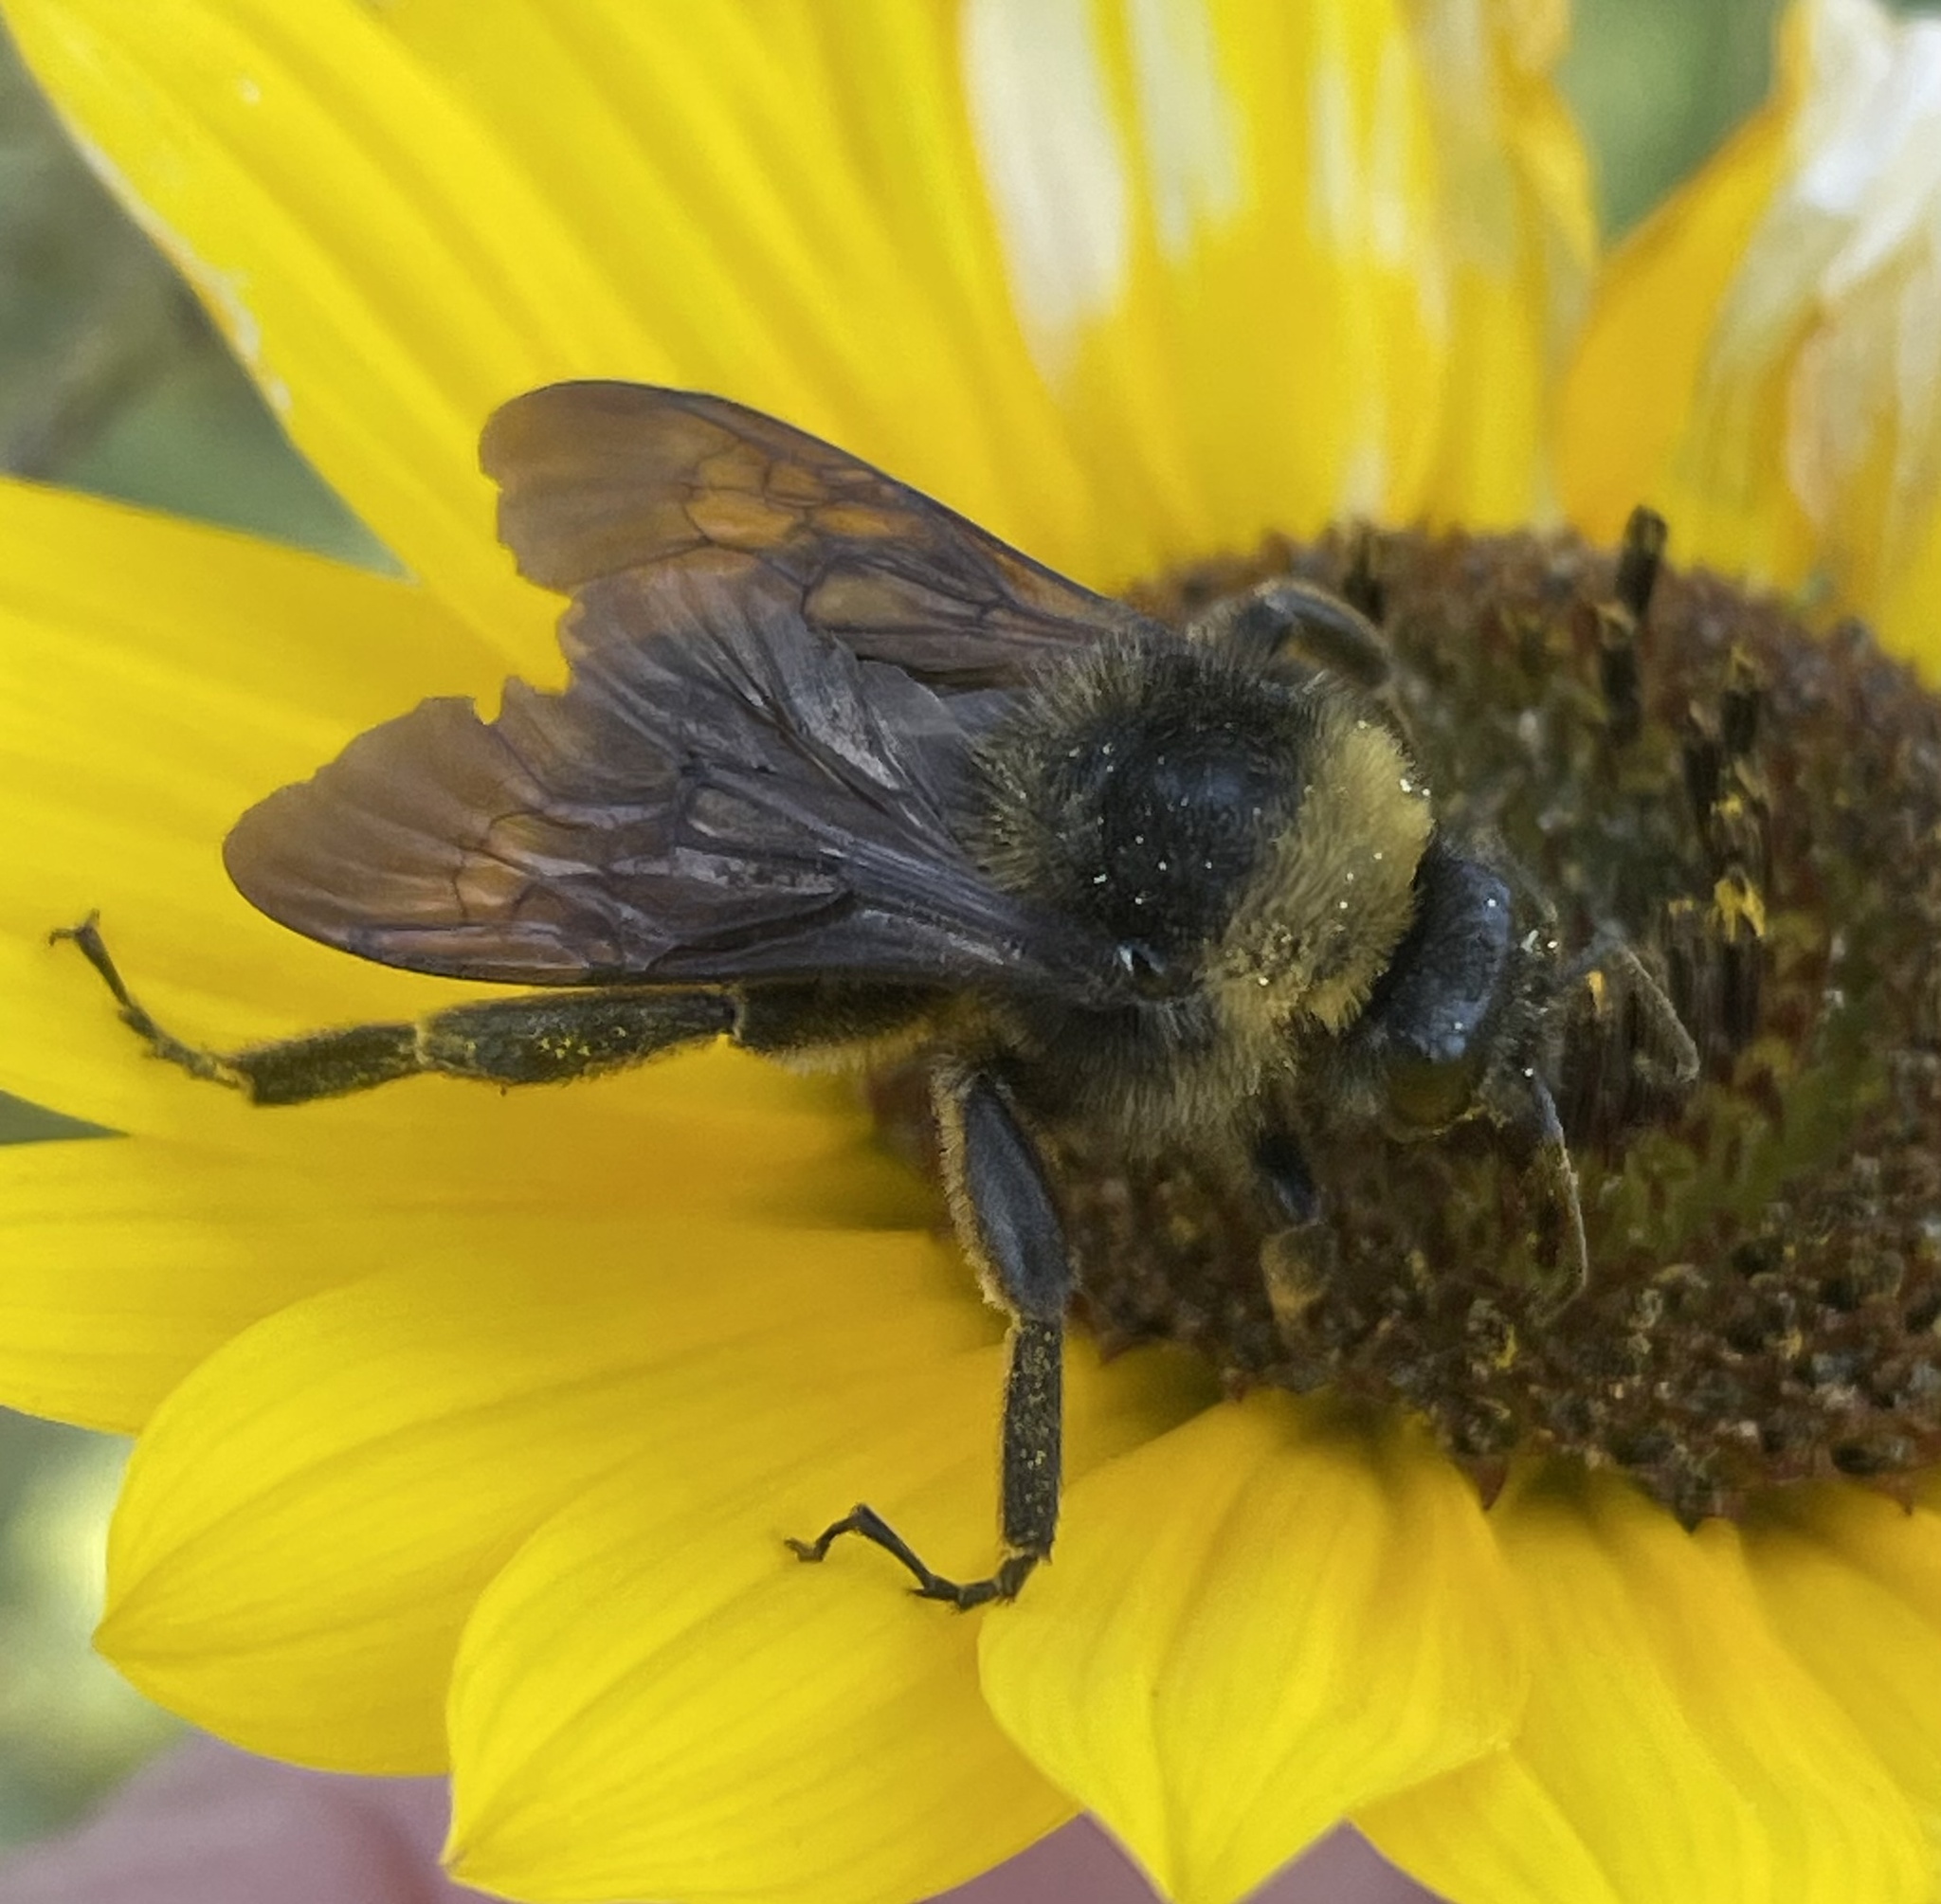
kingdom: Animalia
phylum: Arthropoda
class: Insecta
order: Hymenoptera
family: Apidae
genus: Bombus
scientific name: Bombus pensylvanicus
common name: Bumble bee
